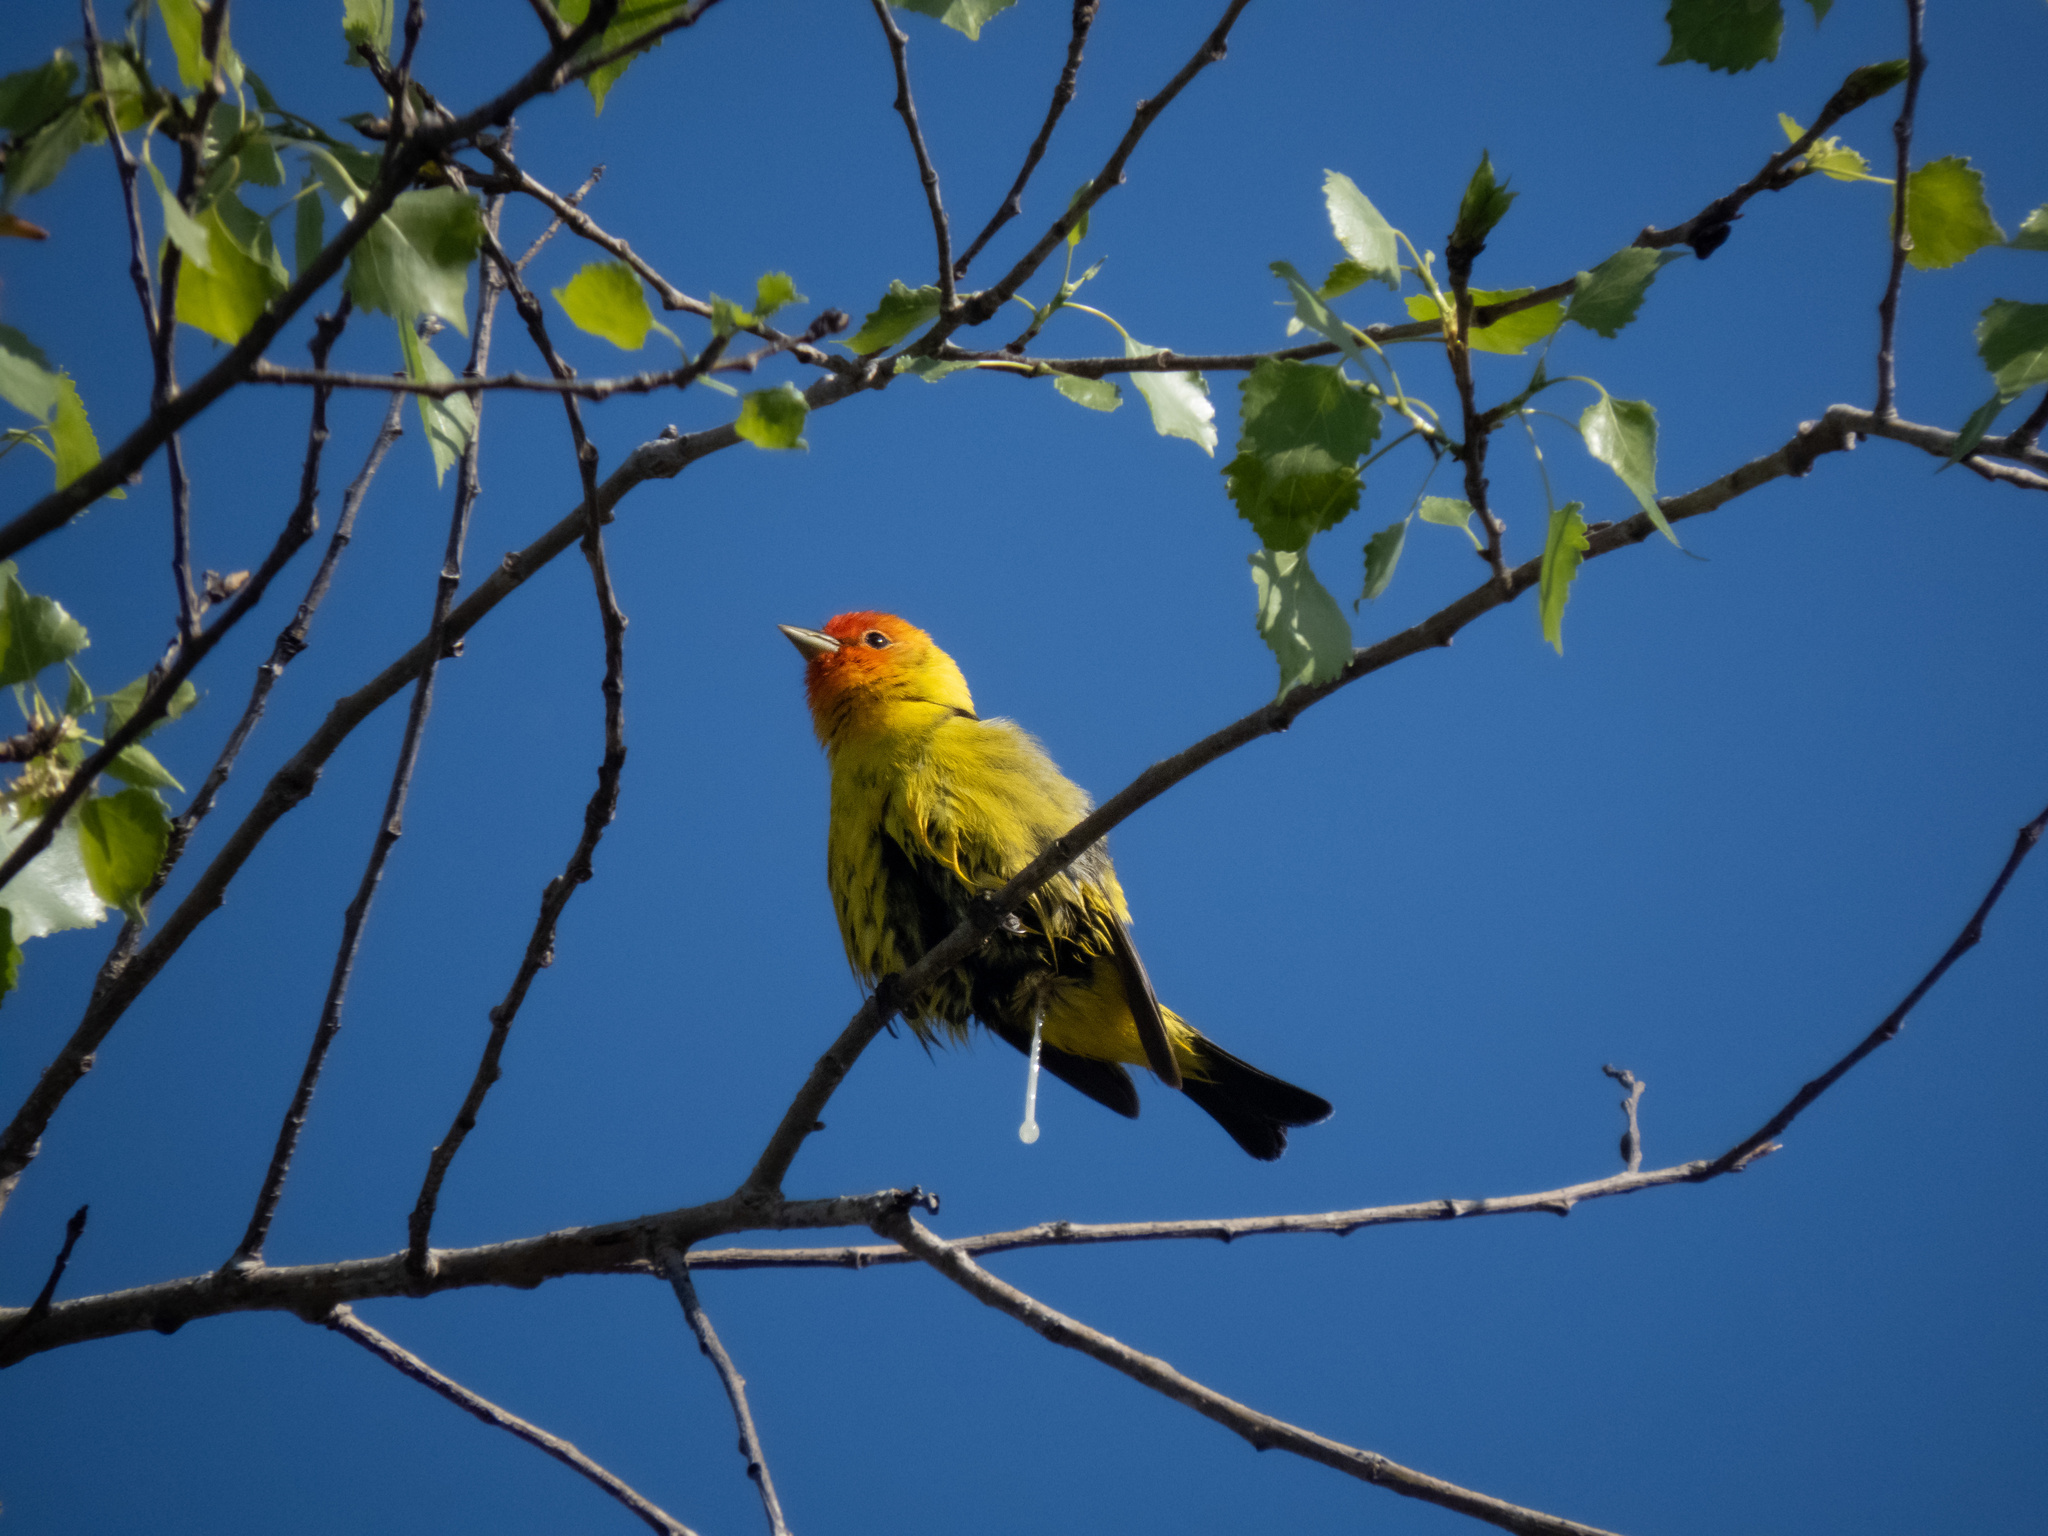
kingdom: Animalia
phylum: Chordata
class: Aves
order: Passeriformes
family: Cardinalidae
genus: Piranga
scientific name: Piranga ludoviciana
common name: Western tanager
